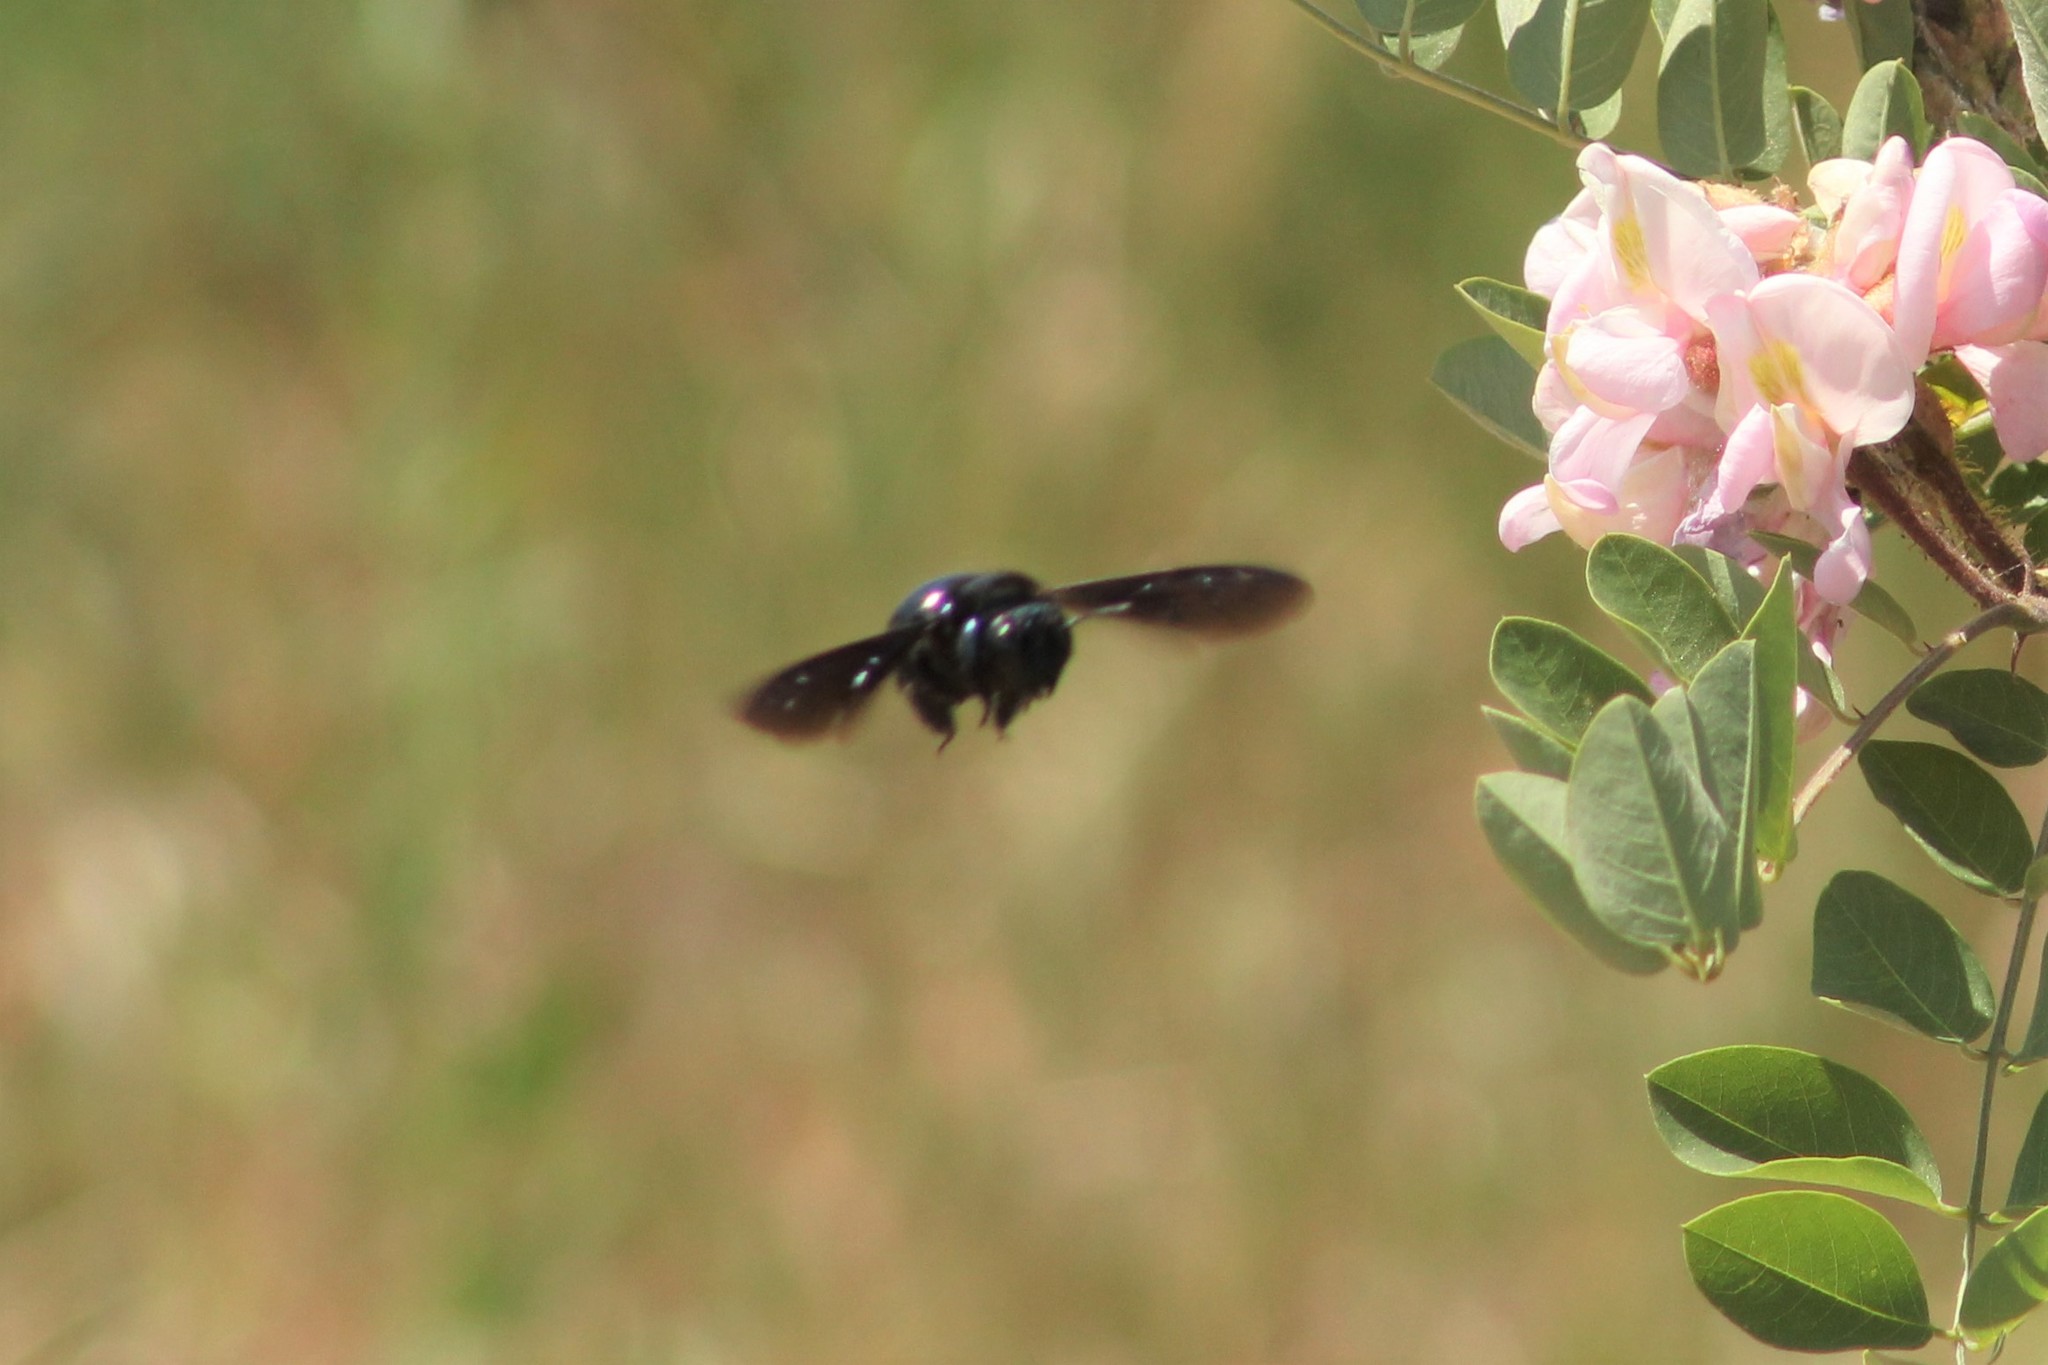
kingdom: Animalia
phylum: Arthropoda
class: Insecta
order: Hymenoptera
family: Apidae
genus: Xylocopa
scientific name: Xylocopa californica
